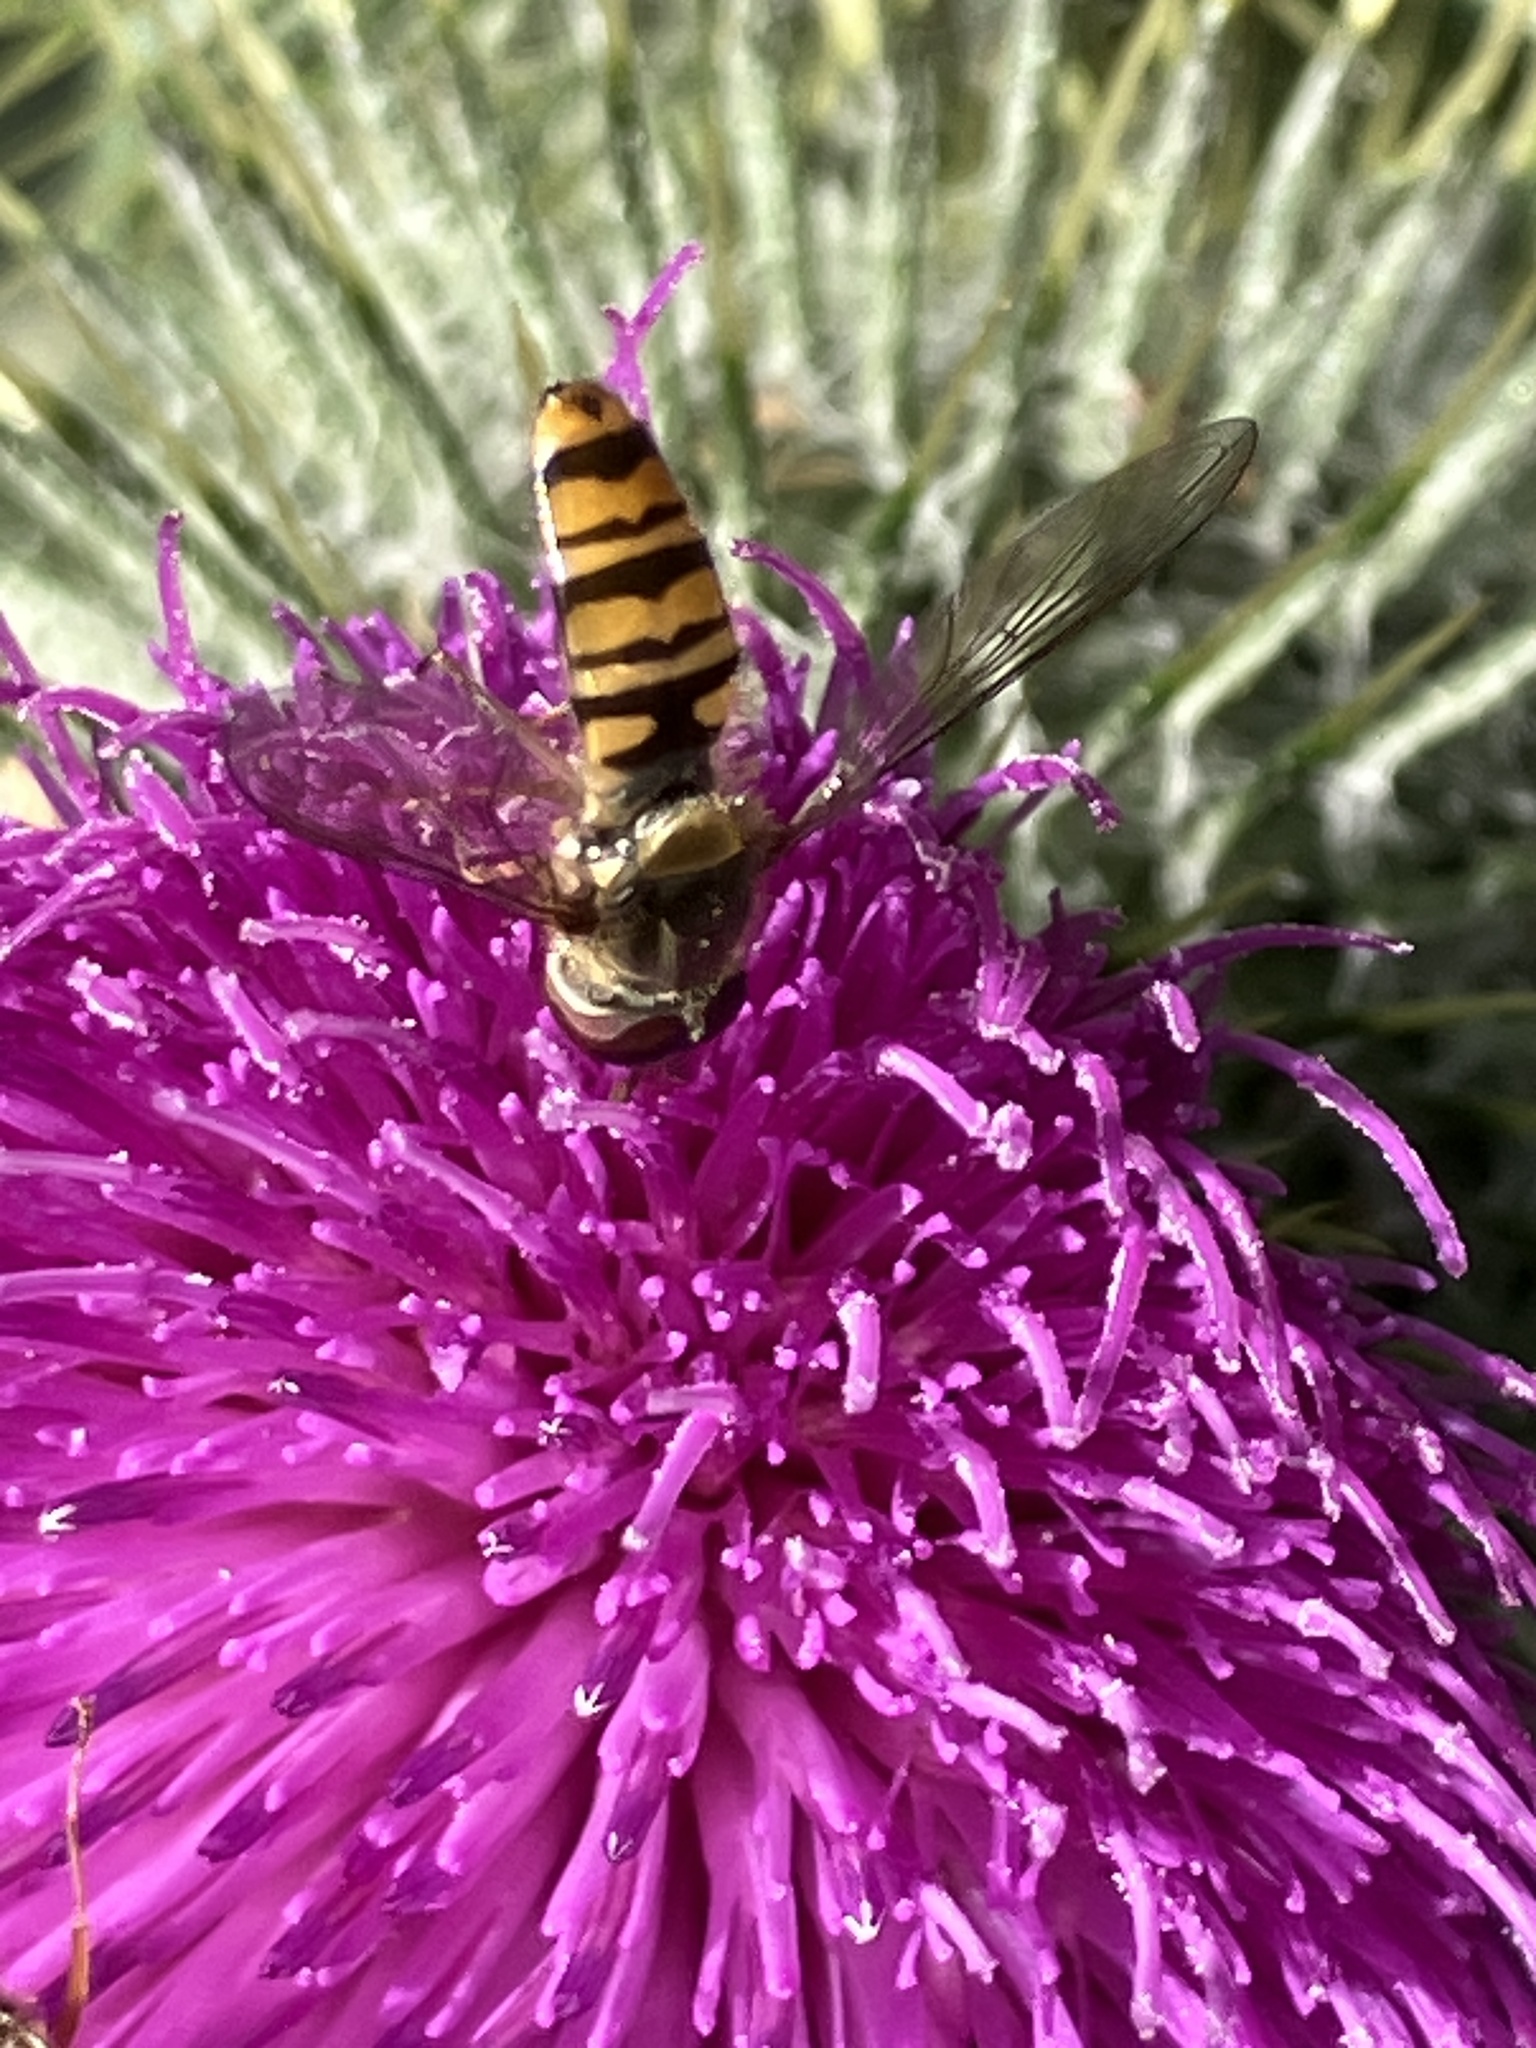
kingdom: Animalia
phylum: Arthropoda
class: Insecta
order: Diptera
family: Syrphidae
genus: Episyrphus
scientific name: Episyrphus balteatus
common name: Marmalade hoverfly
